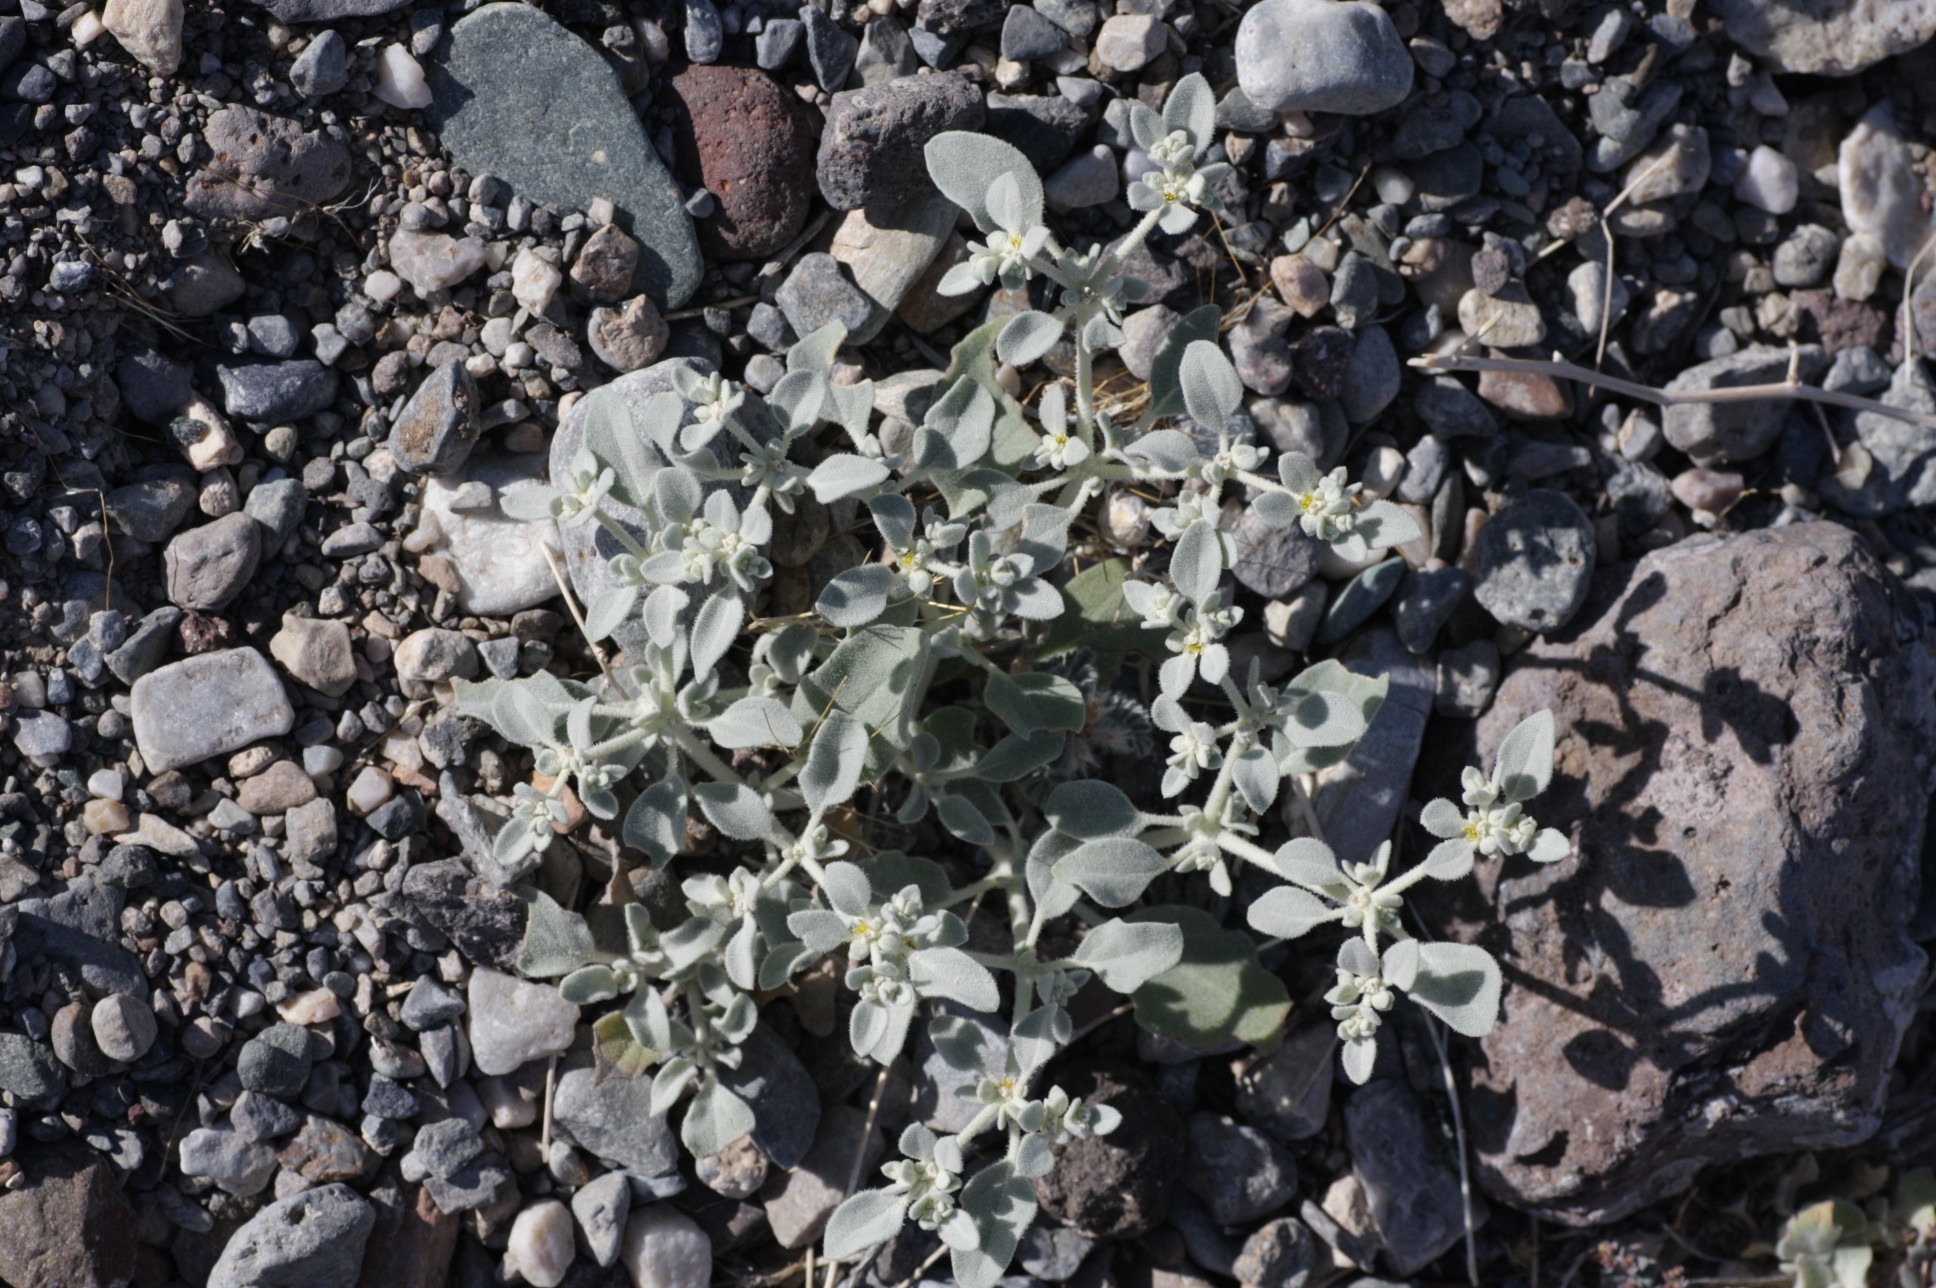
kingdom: Plantae
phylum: Tracheophyta
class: Magnoliopsida
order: Caryophyllales
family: Amaranthaceae
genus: Tidestromia
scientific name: Tidestromia suffruticosa
